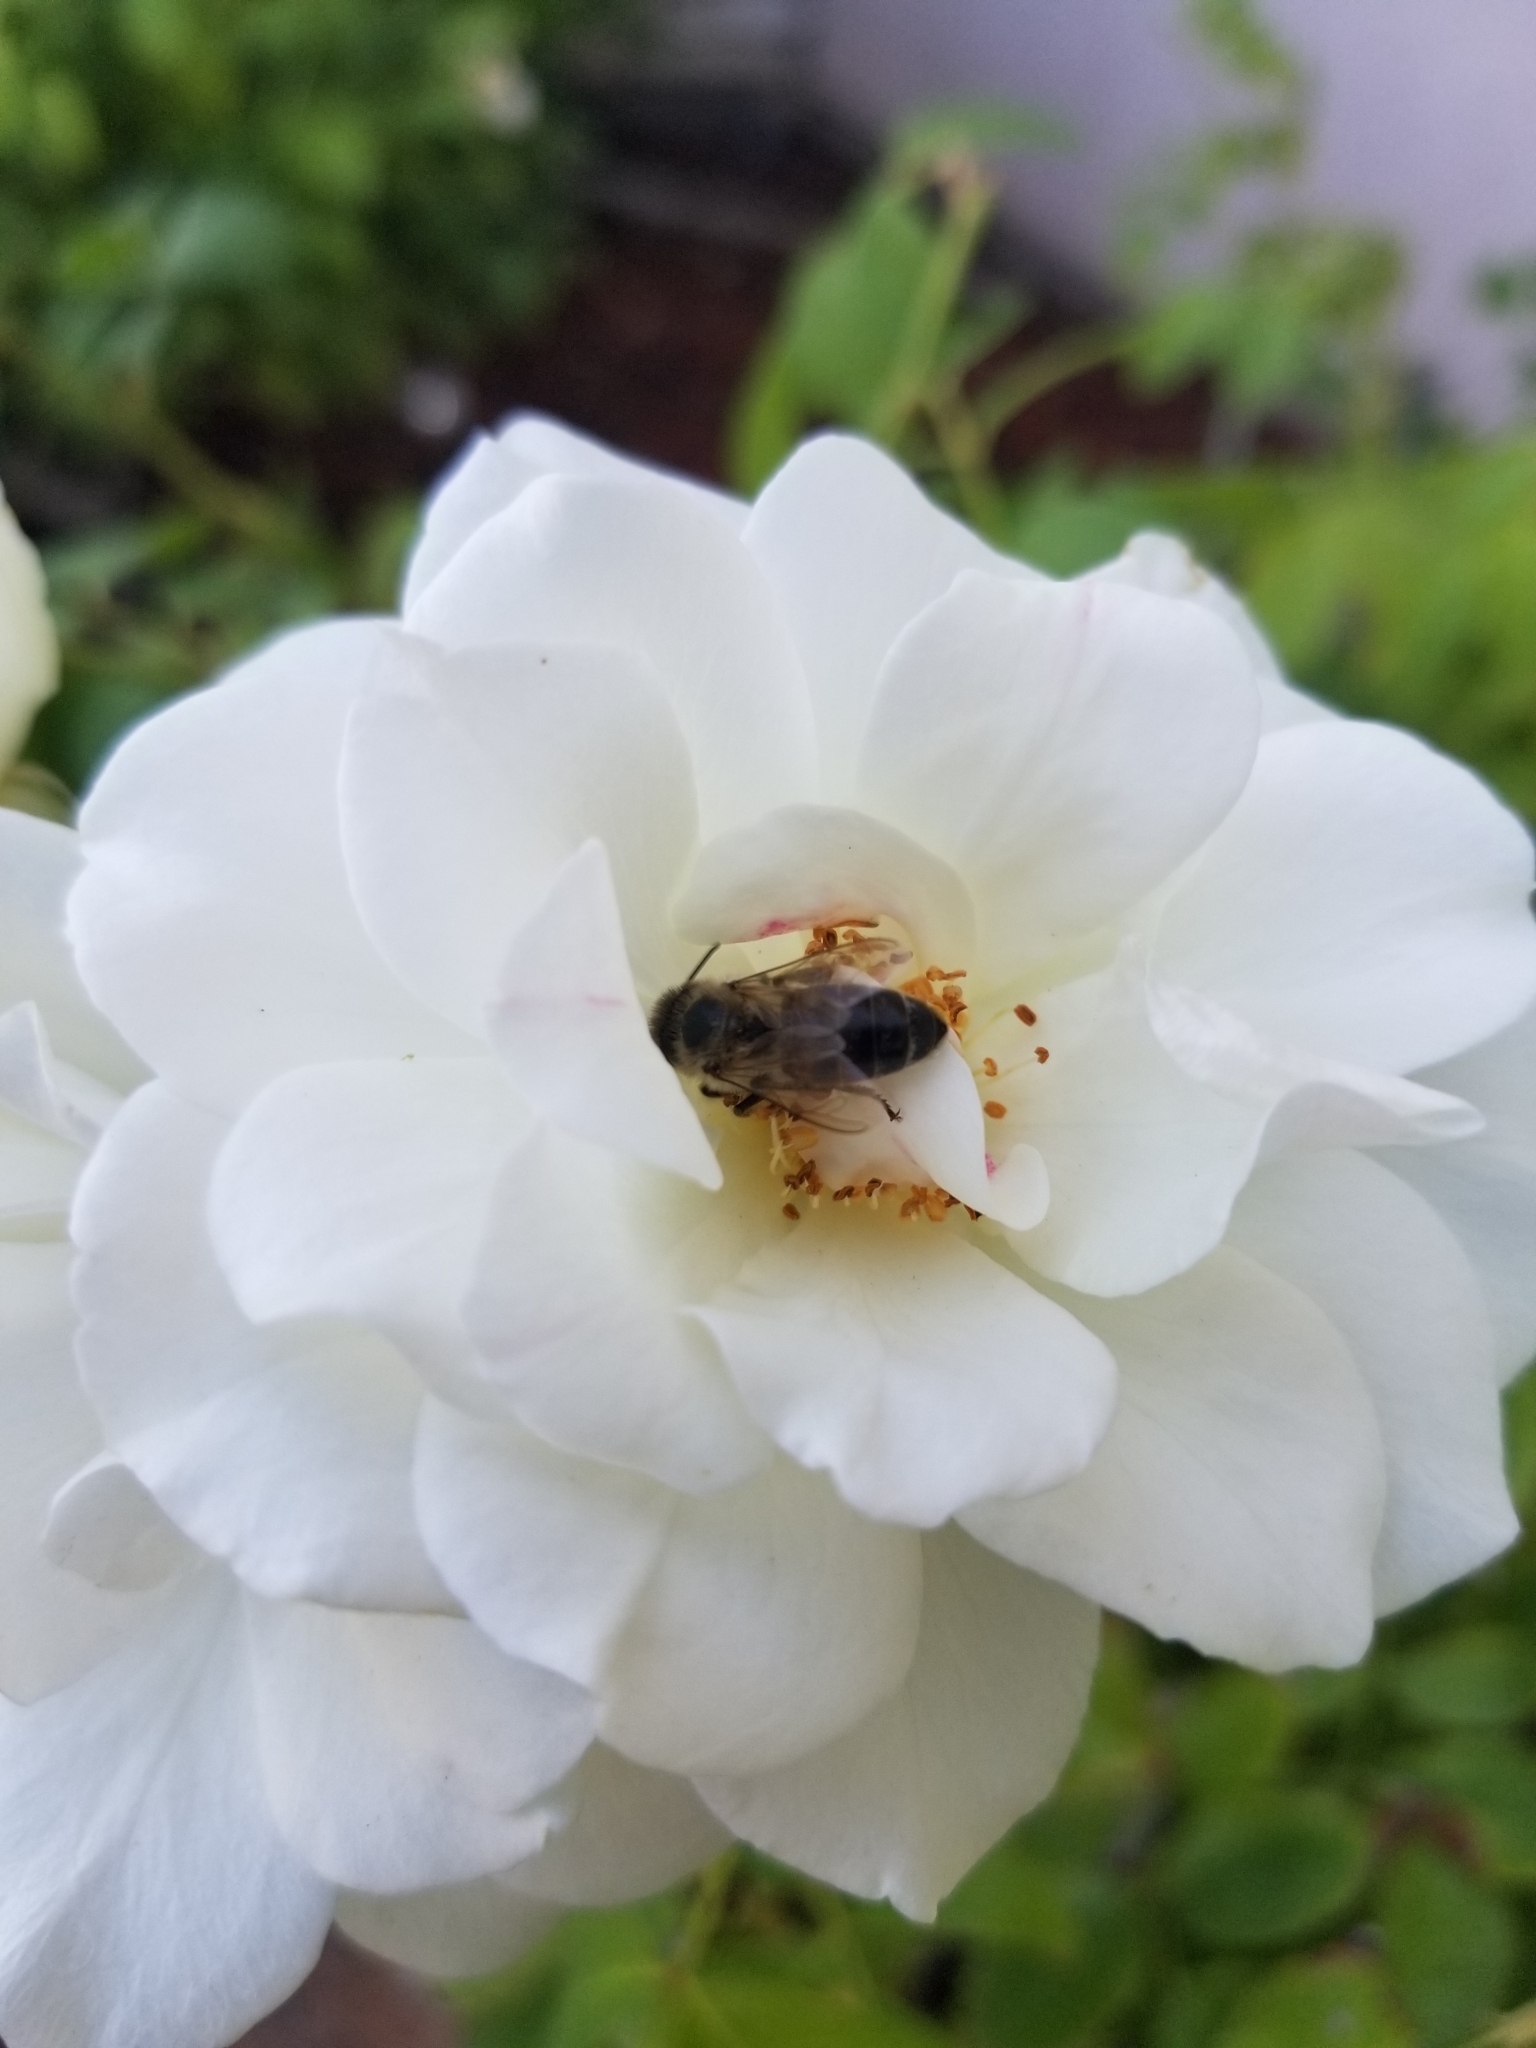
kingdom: Animalia
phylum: Arthropoda
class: Insecta
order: Hymenoptera
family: Apidae
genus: Apis
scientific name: Apis mellifera
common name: Honey bee
